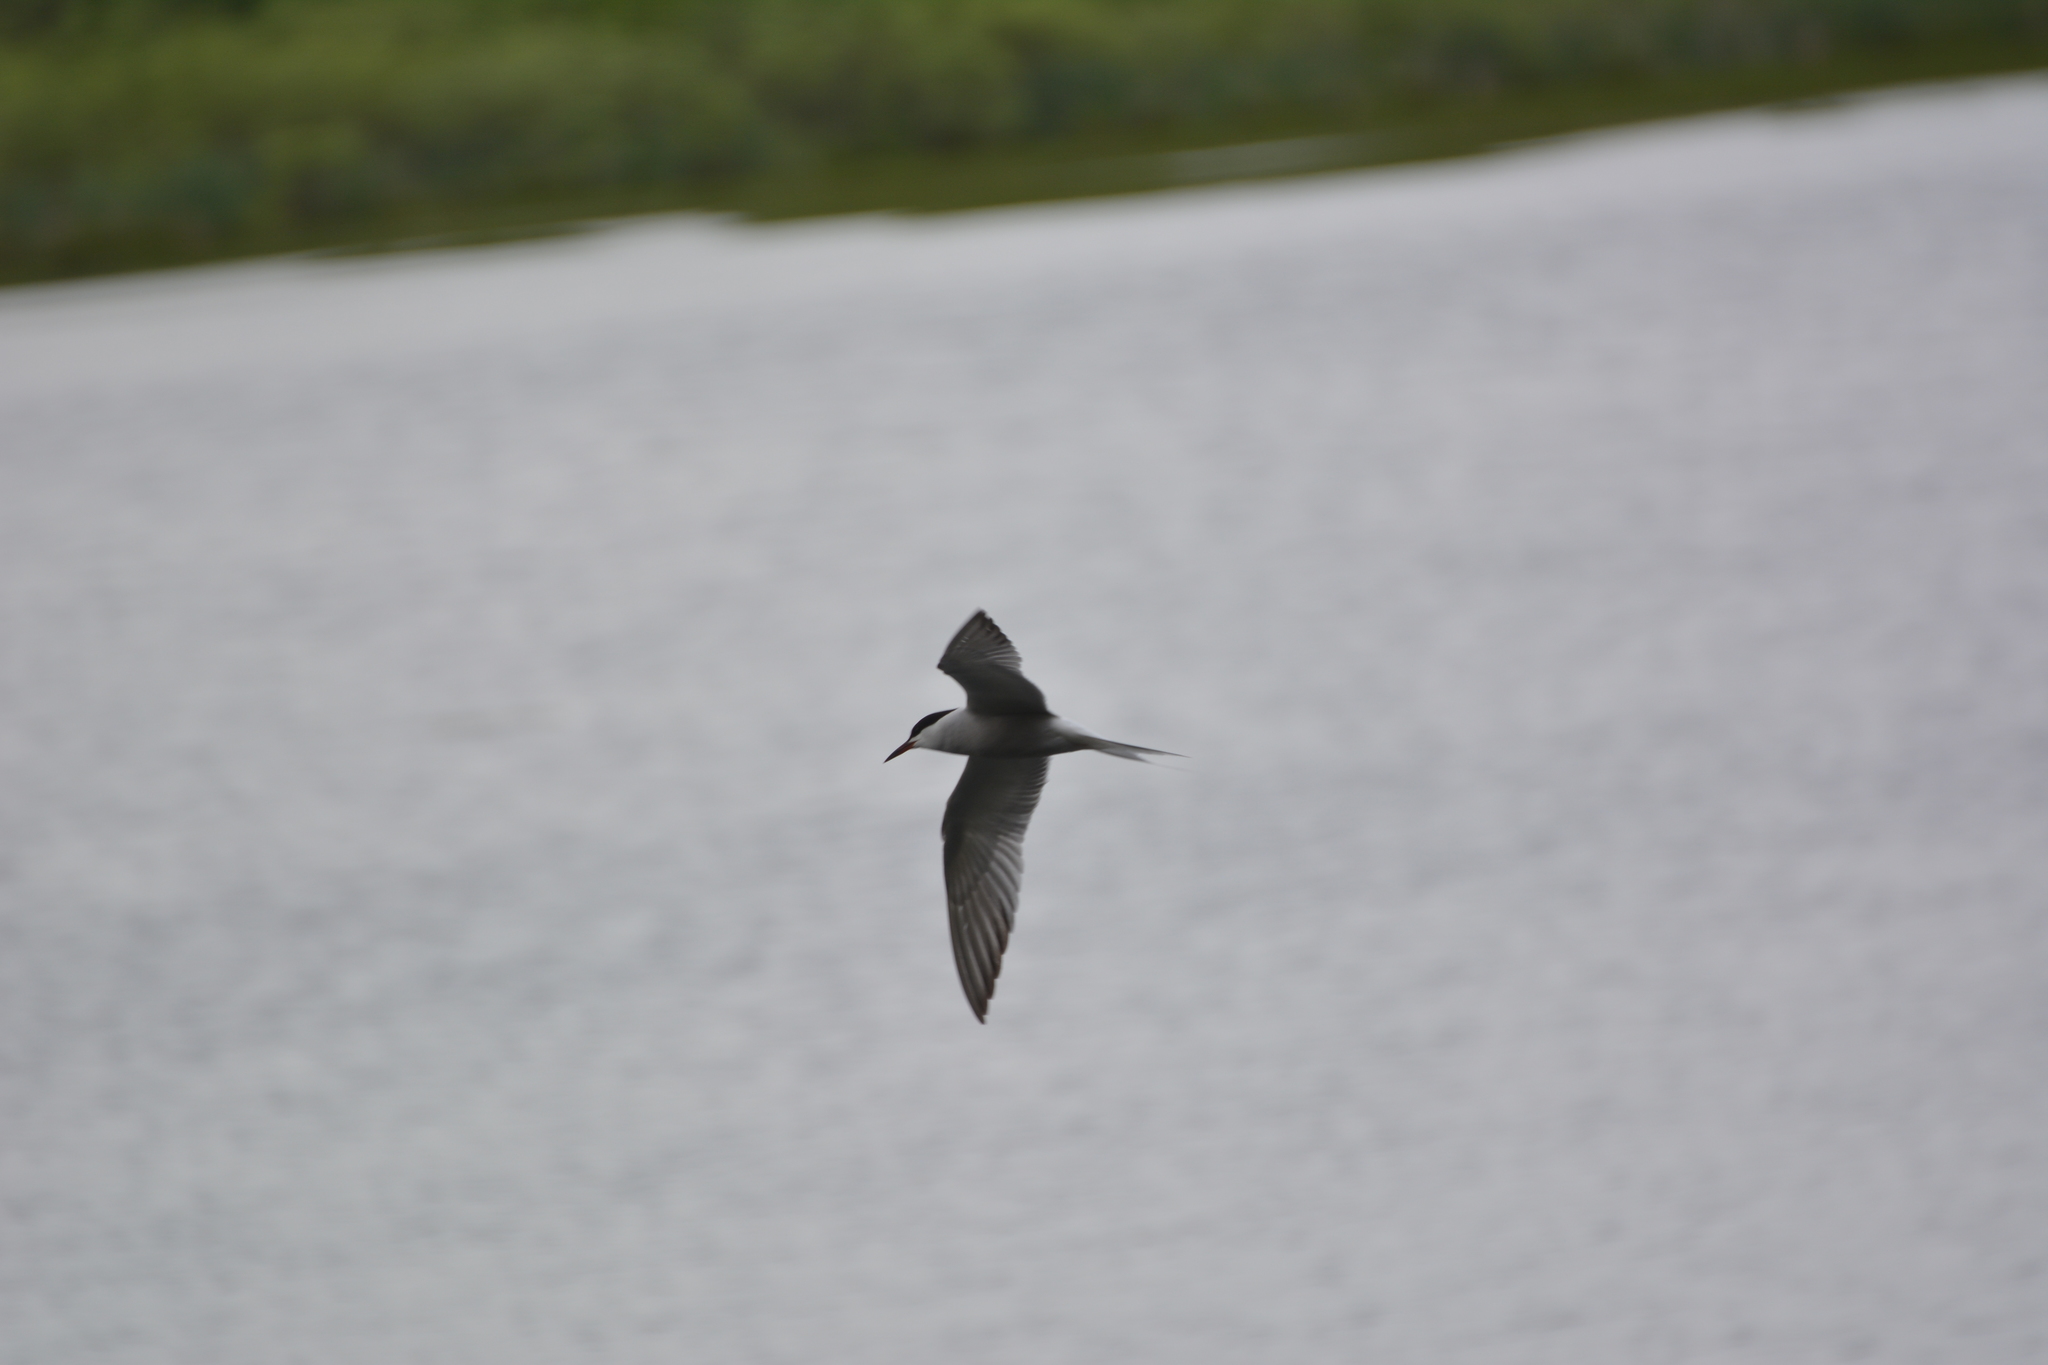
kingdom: Animalia
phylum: Chordata
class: Aves
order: Charadriiformes
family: Laridae
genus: Sterna
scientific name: Sterna hirundo
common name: Common tern
